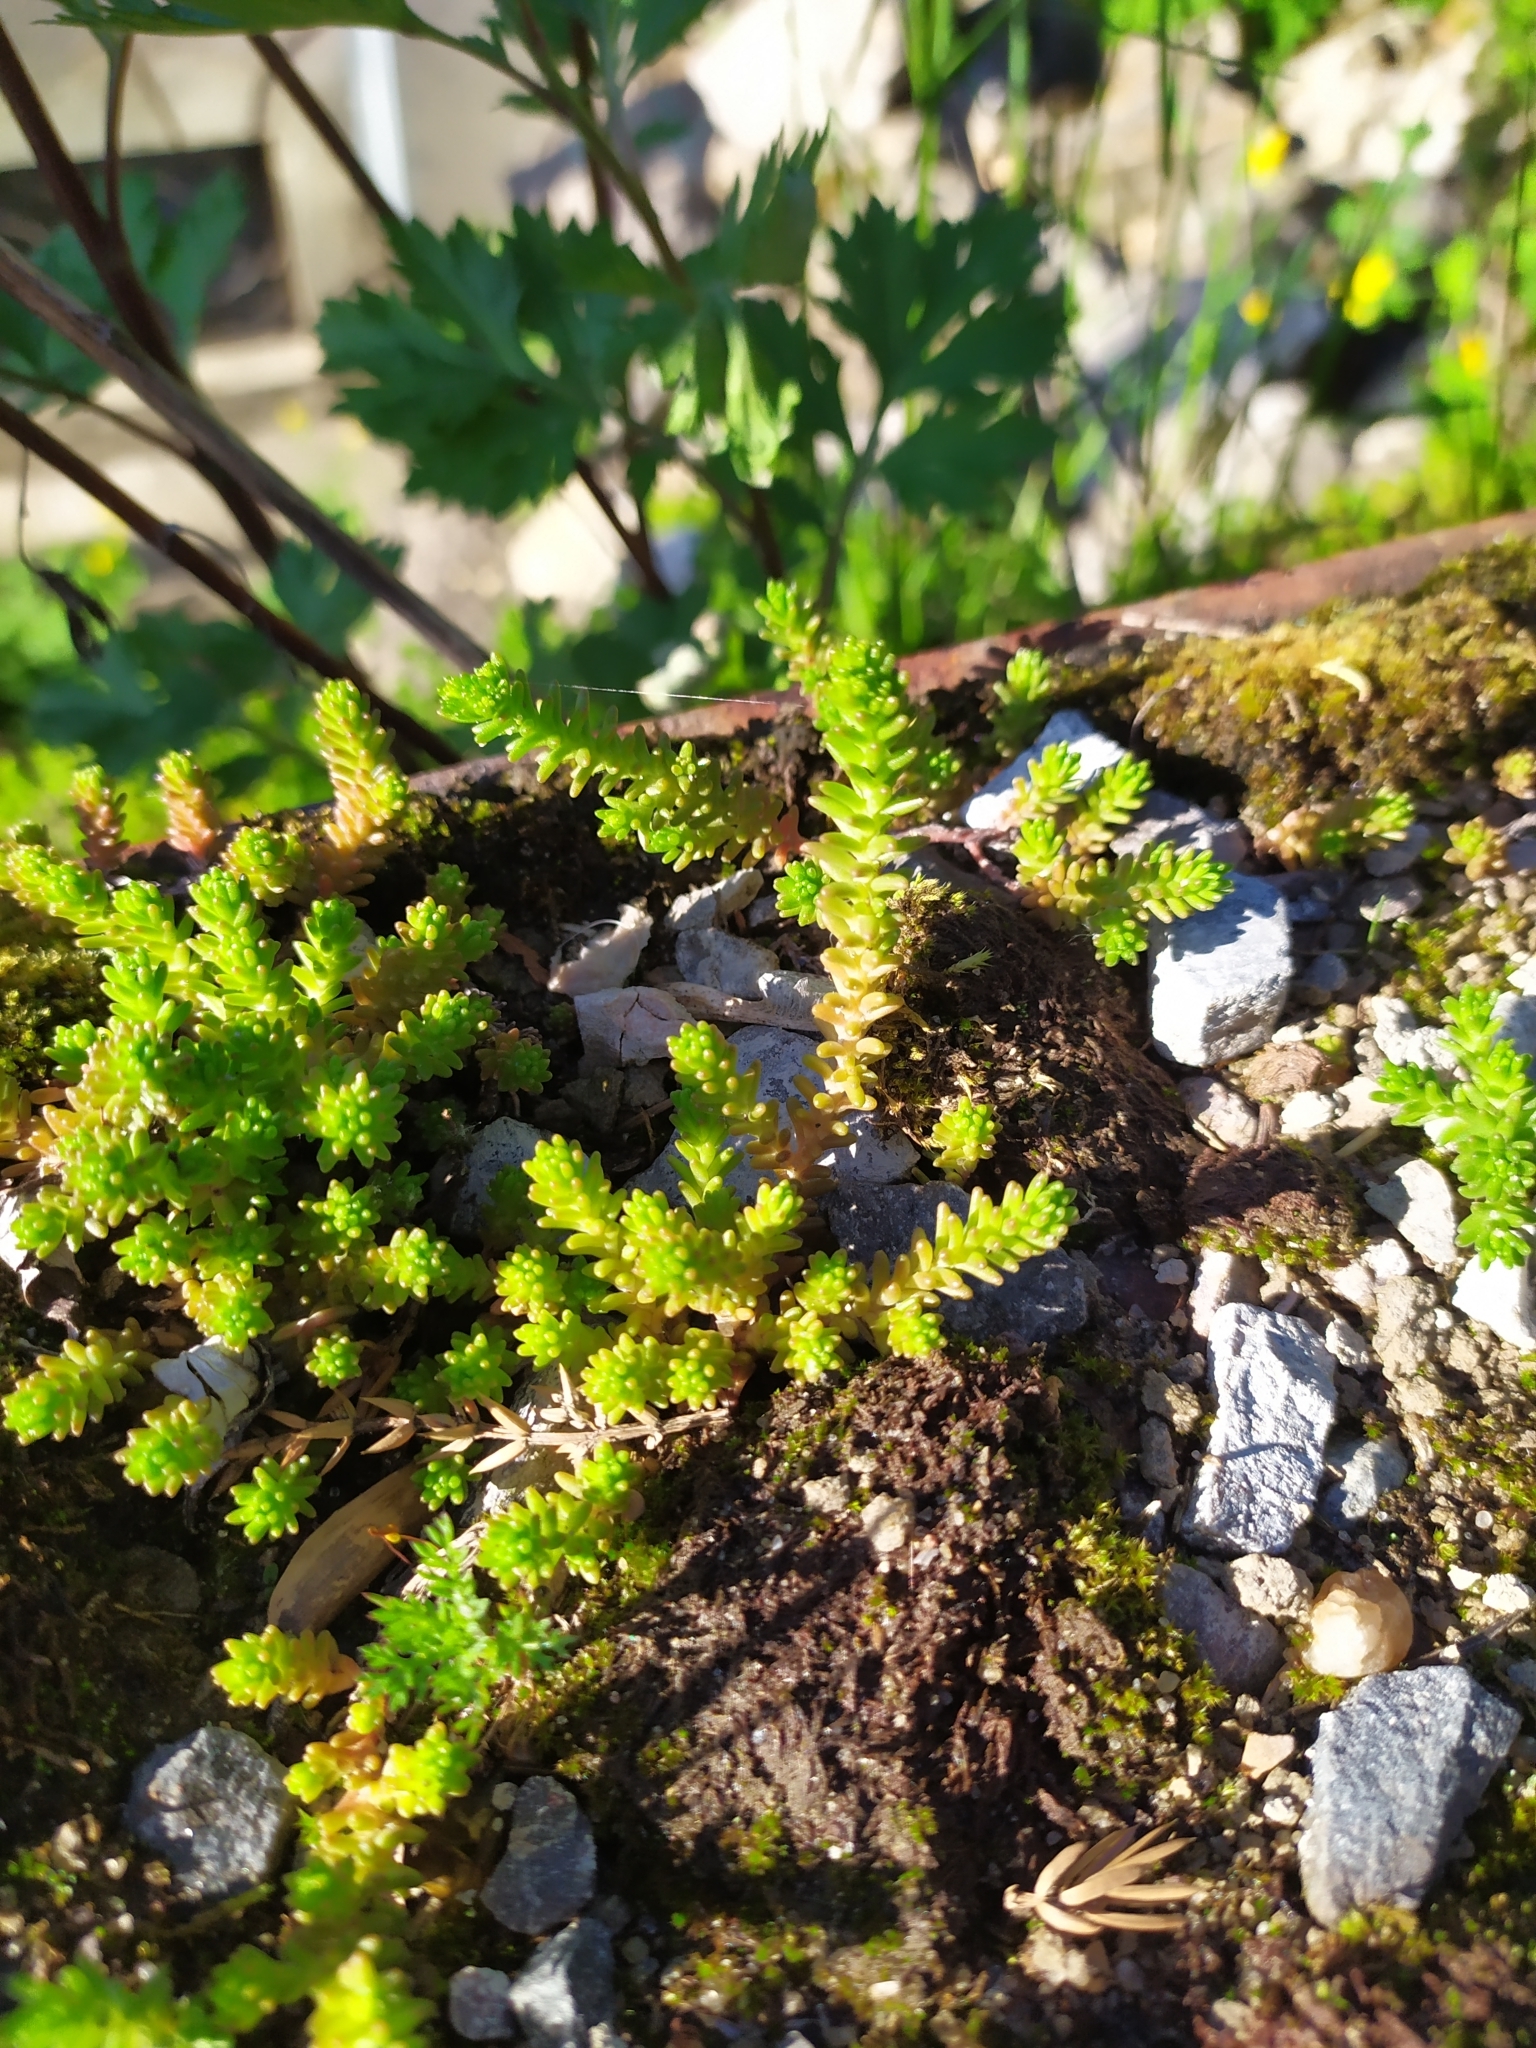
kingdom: Plantae
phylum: Tracheophyta
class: Magnoliopsida
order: Saxifragales
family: Crassulaceae
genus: Sedum
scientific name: Sedum sexangulare
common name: Tasteless stonecrop
